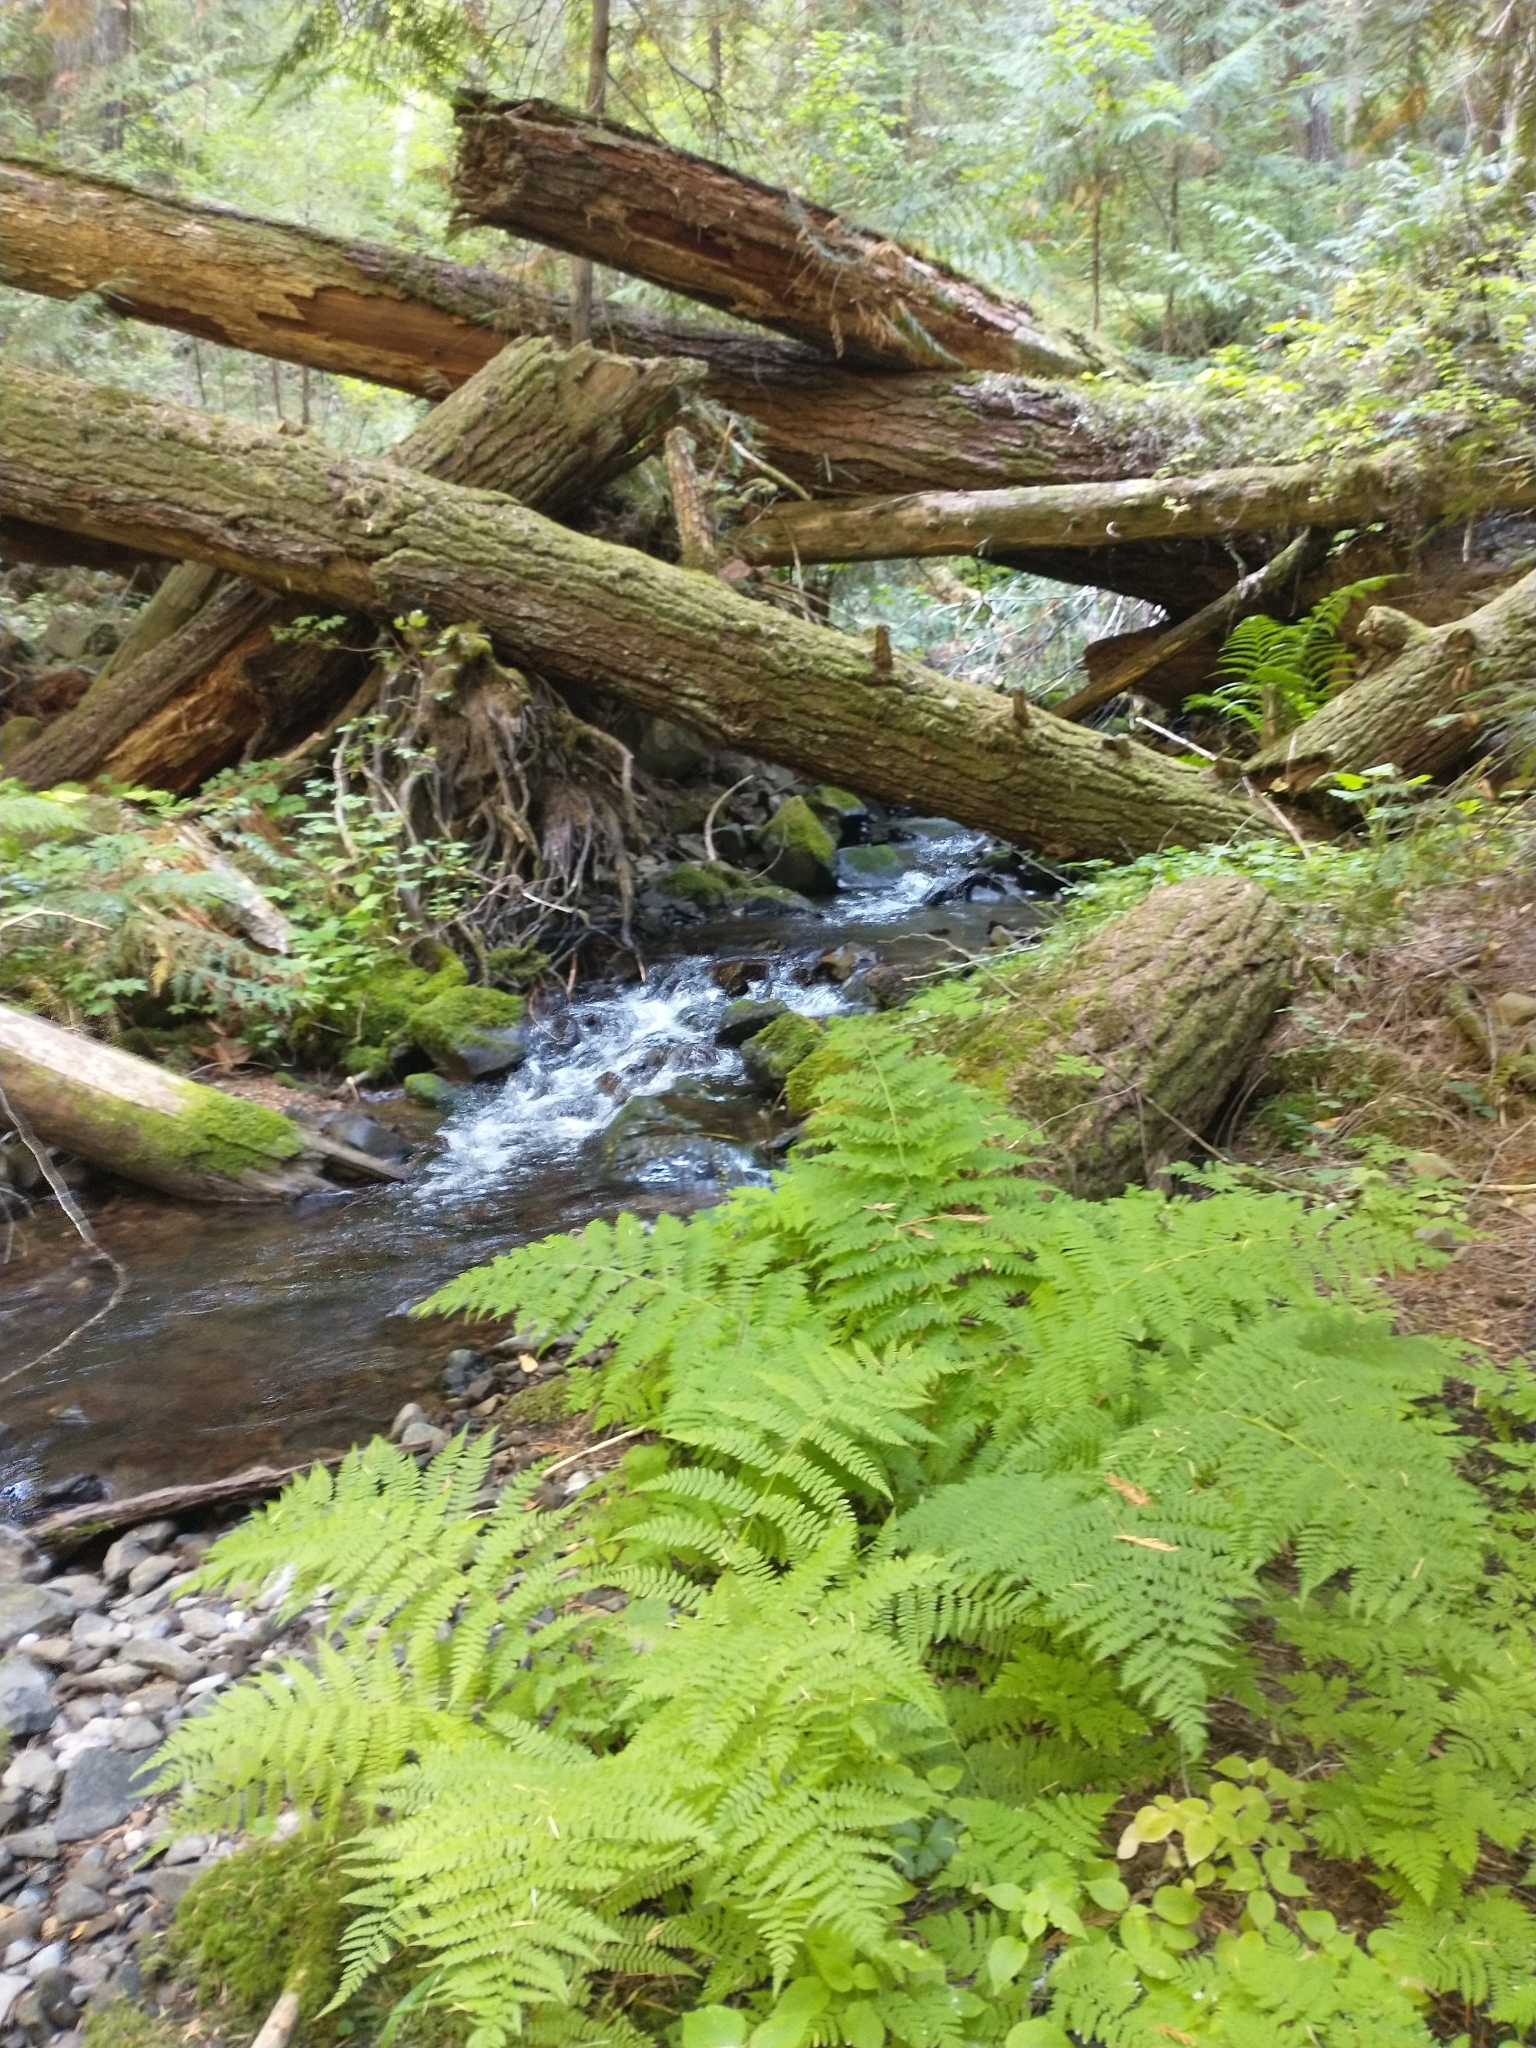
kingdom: Plantae
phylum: Tracheophyta
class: Polypodiopsida
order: Polypodiales
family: Athyriaceae
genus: Athyrium
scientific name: Athyrium cyclosorum
